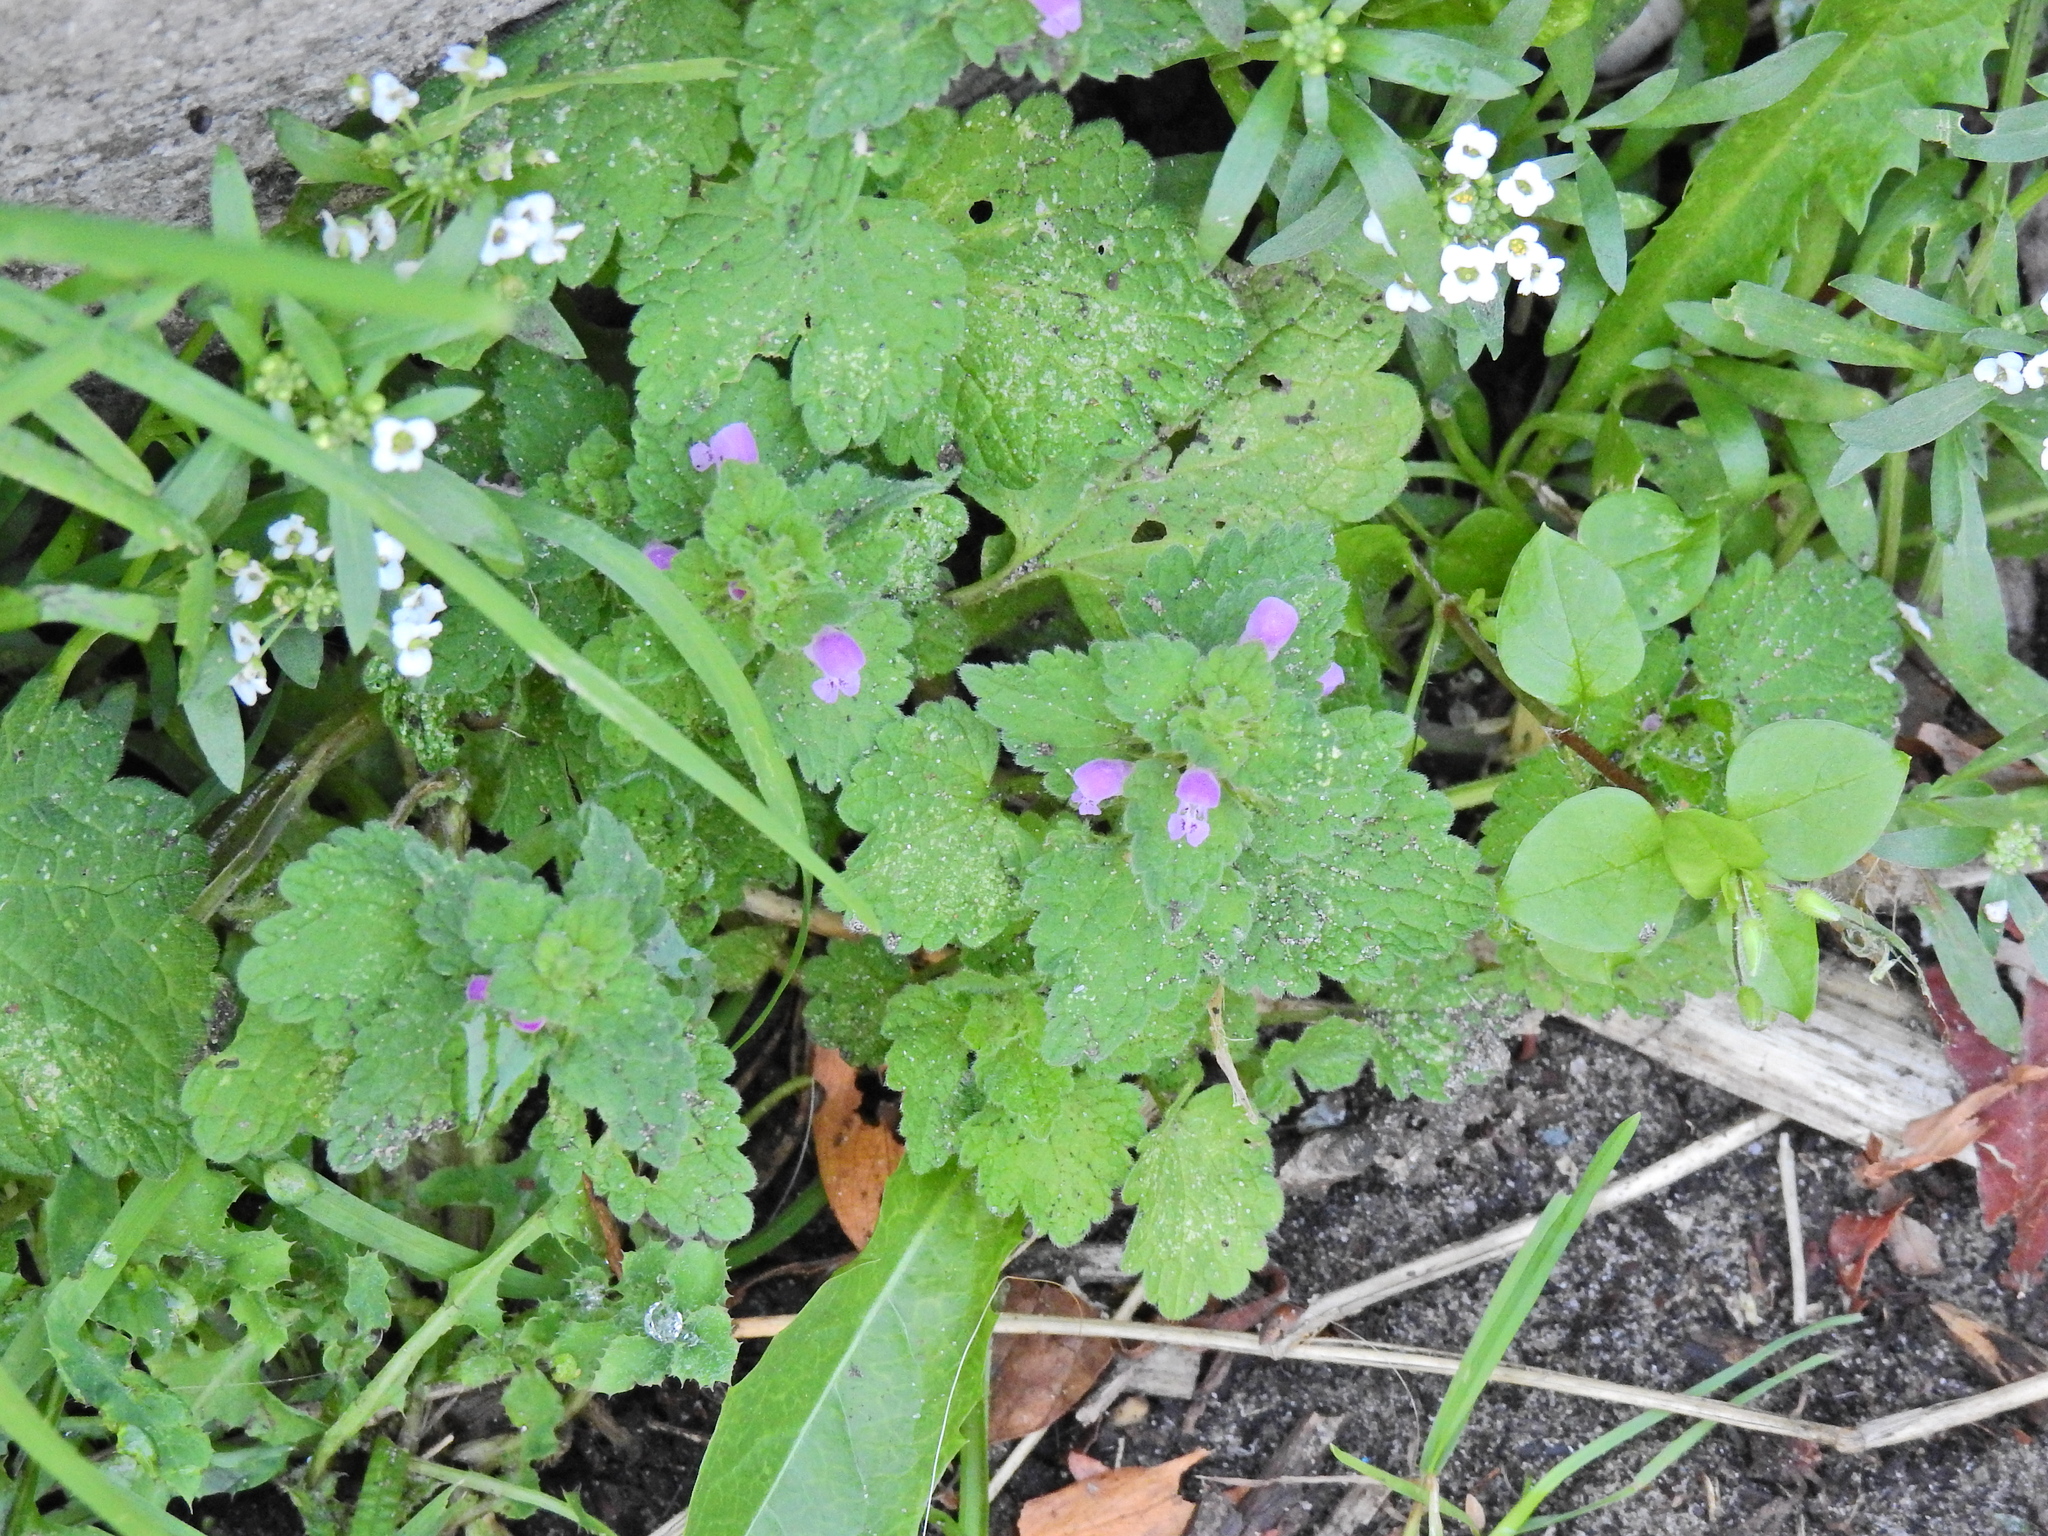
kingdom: Plantae
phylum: Tracheophyta
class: Magnoliopsida
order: Lamiales
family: Lamiaceae
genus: Lamium
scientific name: Lamium purpureum
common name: Red dead-nettle
